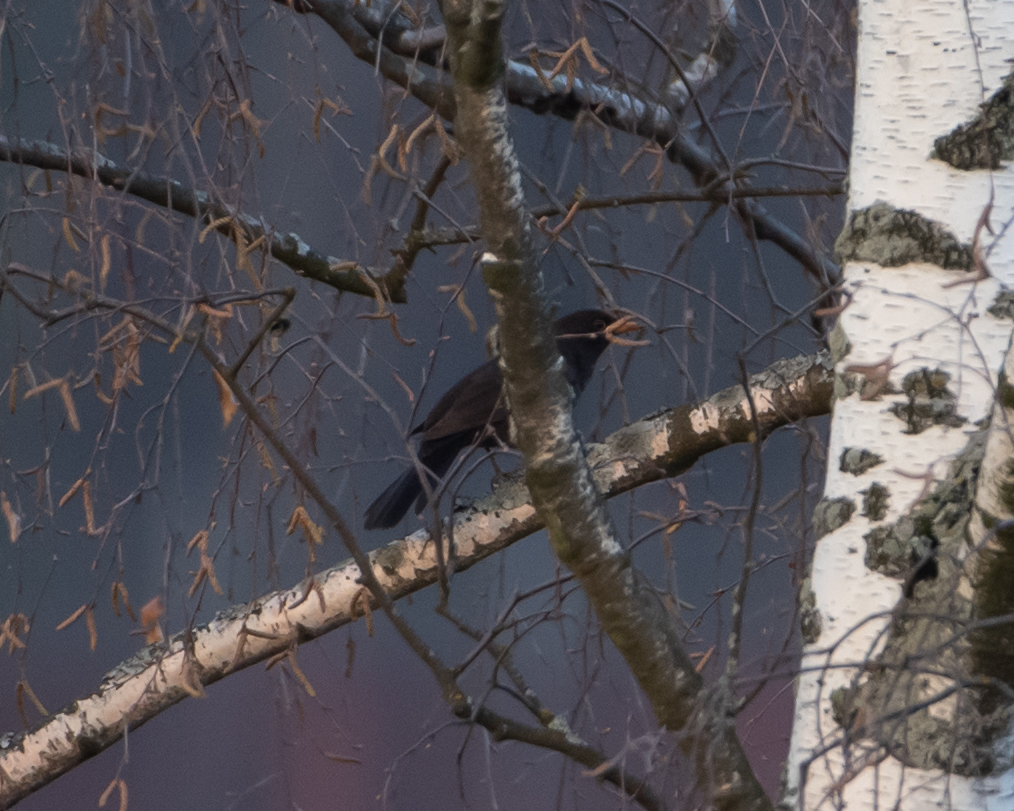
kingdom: Animalia
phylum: Chordata
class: Aves
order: Passeriformes
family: Turdidae
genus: Turdus
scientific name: Turdus merula
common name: Common blackbird
